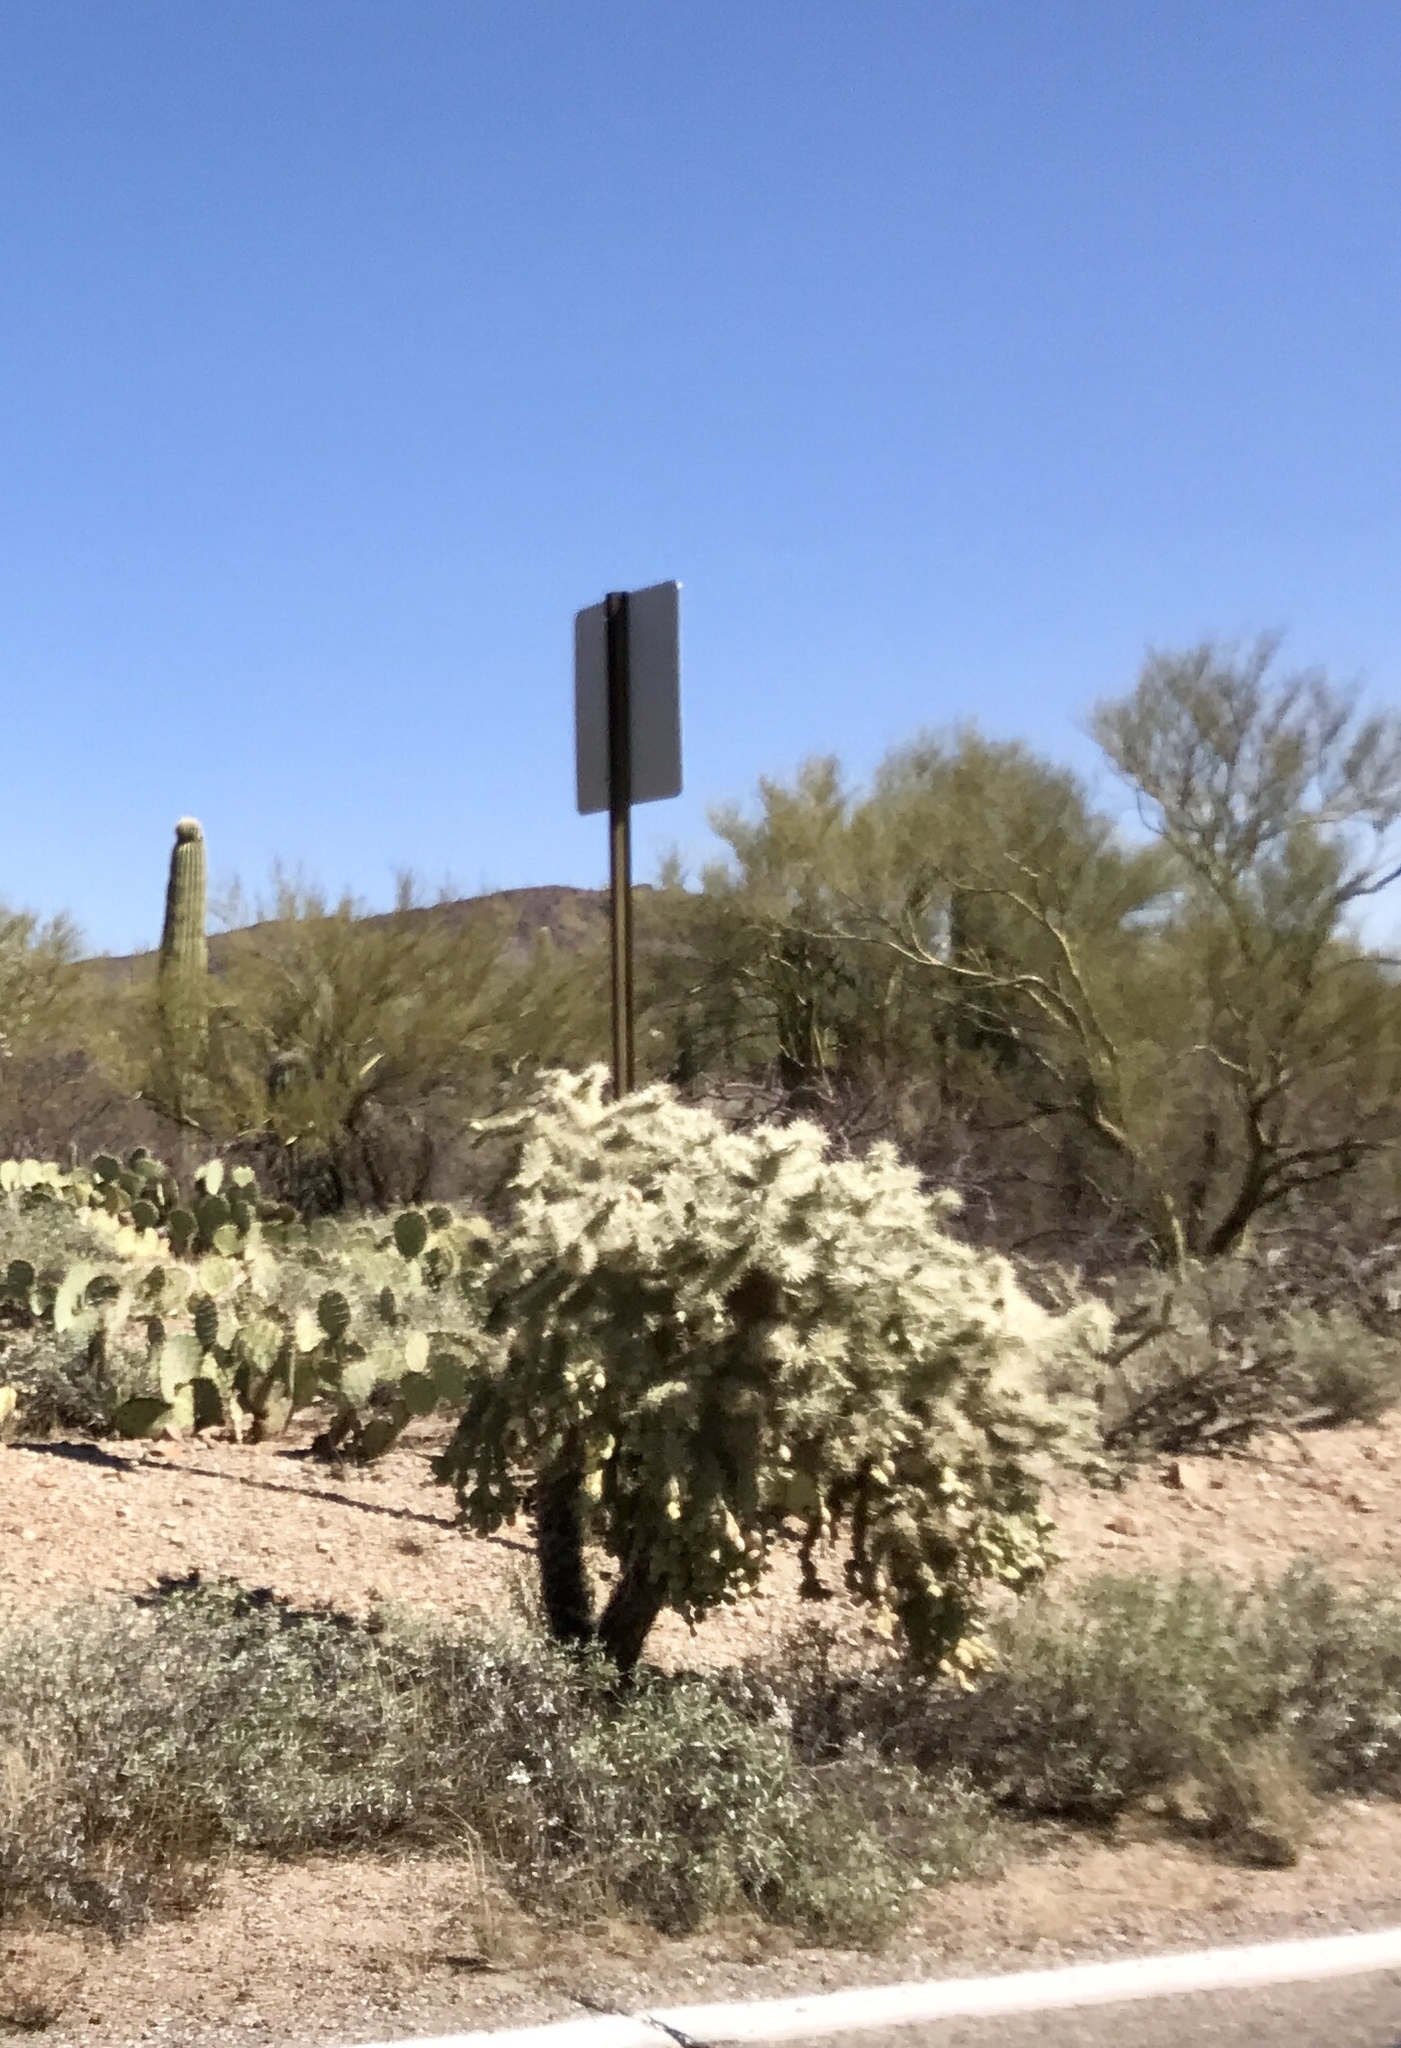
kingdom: Plantae
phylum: Tracheophyta
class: Magnoliopsida
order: Caryophyllales
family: Cactaceae
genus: Cylindropuntia
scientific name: Cylindropuntia fulgida
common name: Jumping cholla
